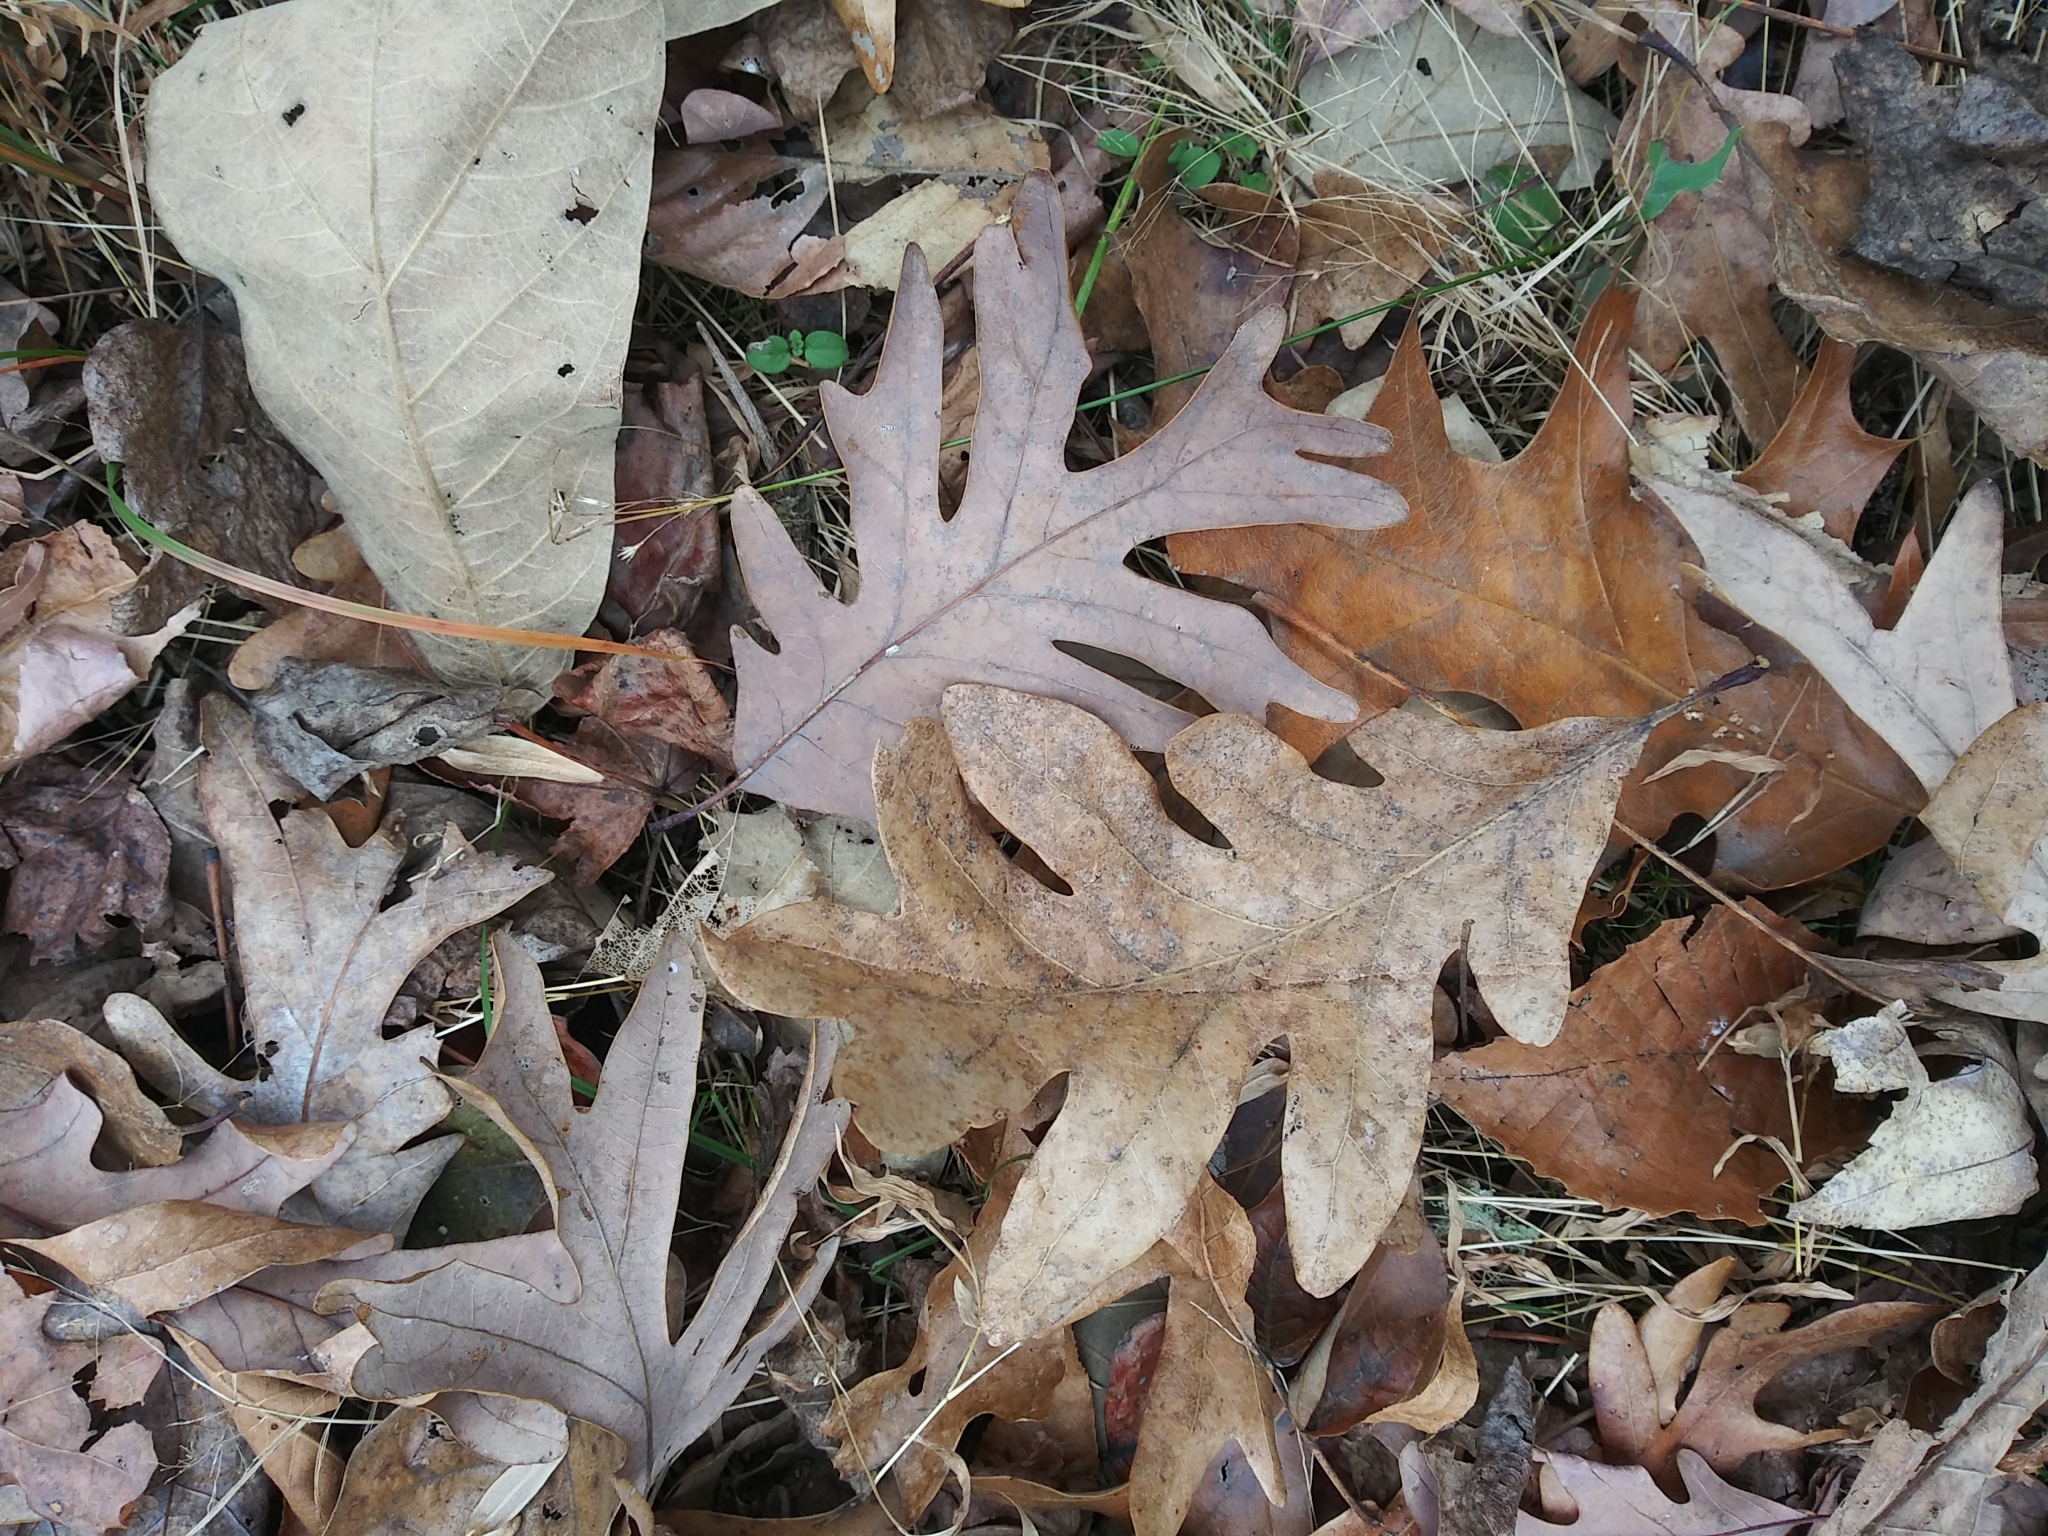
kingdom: Plantae
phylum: Tracheophyta
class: Magnoliopsida
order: Fagales
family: Fagaceae
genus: Quercus
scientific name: Quercus alba
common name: White oak
